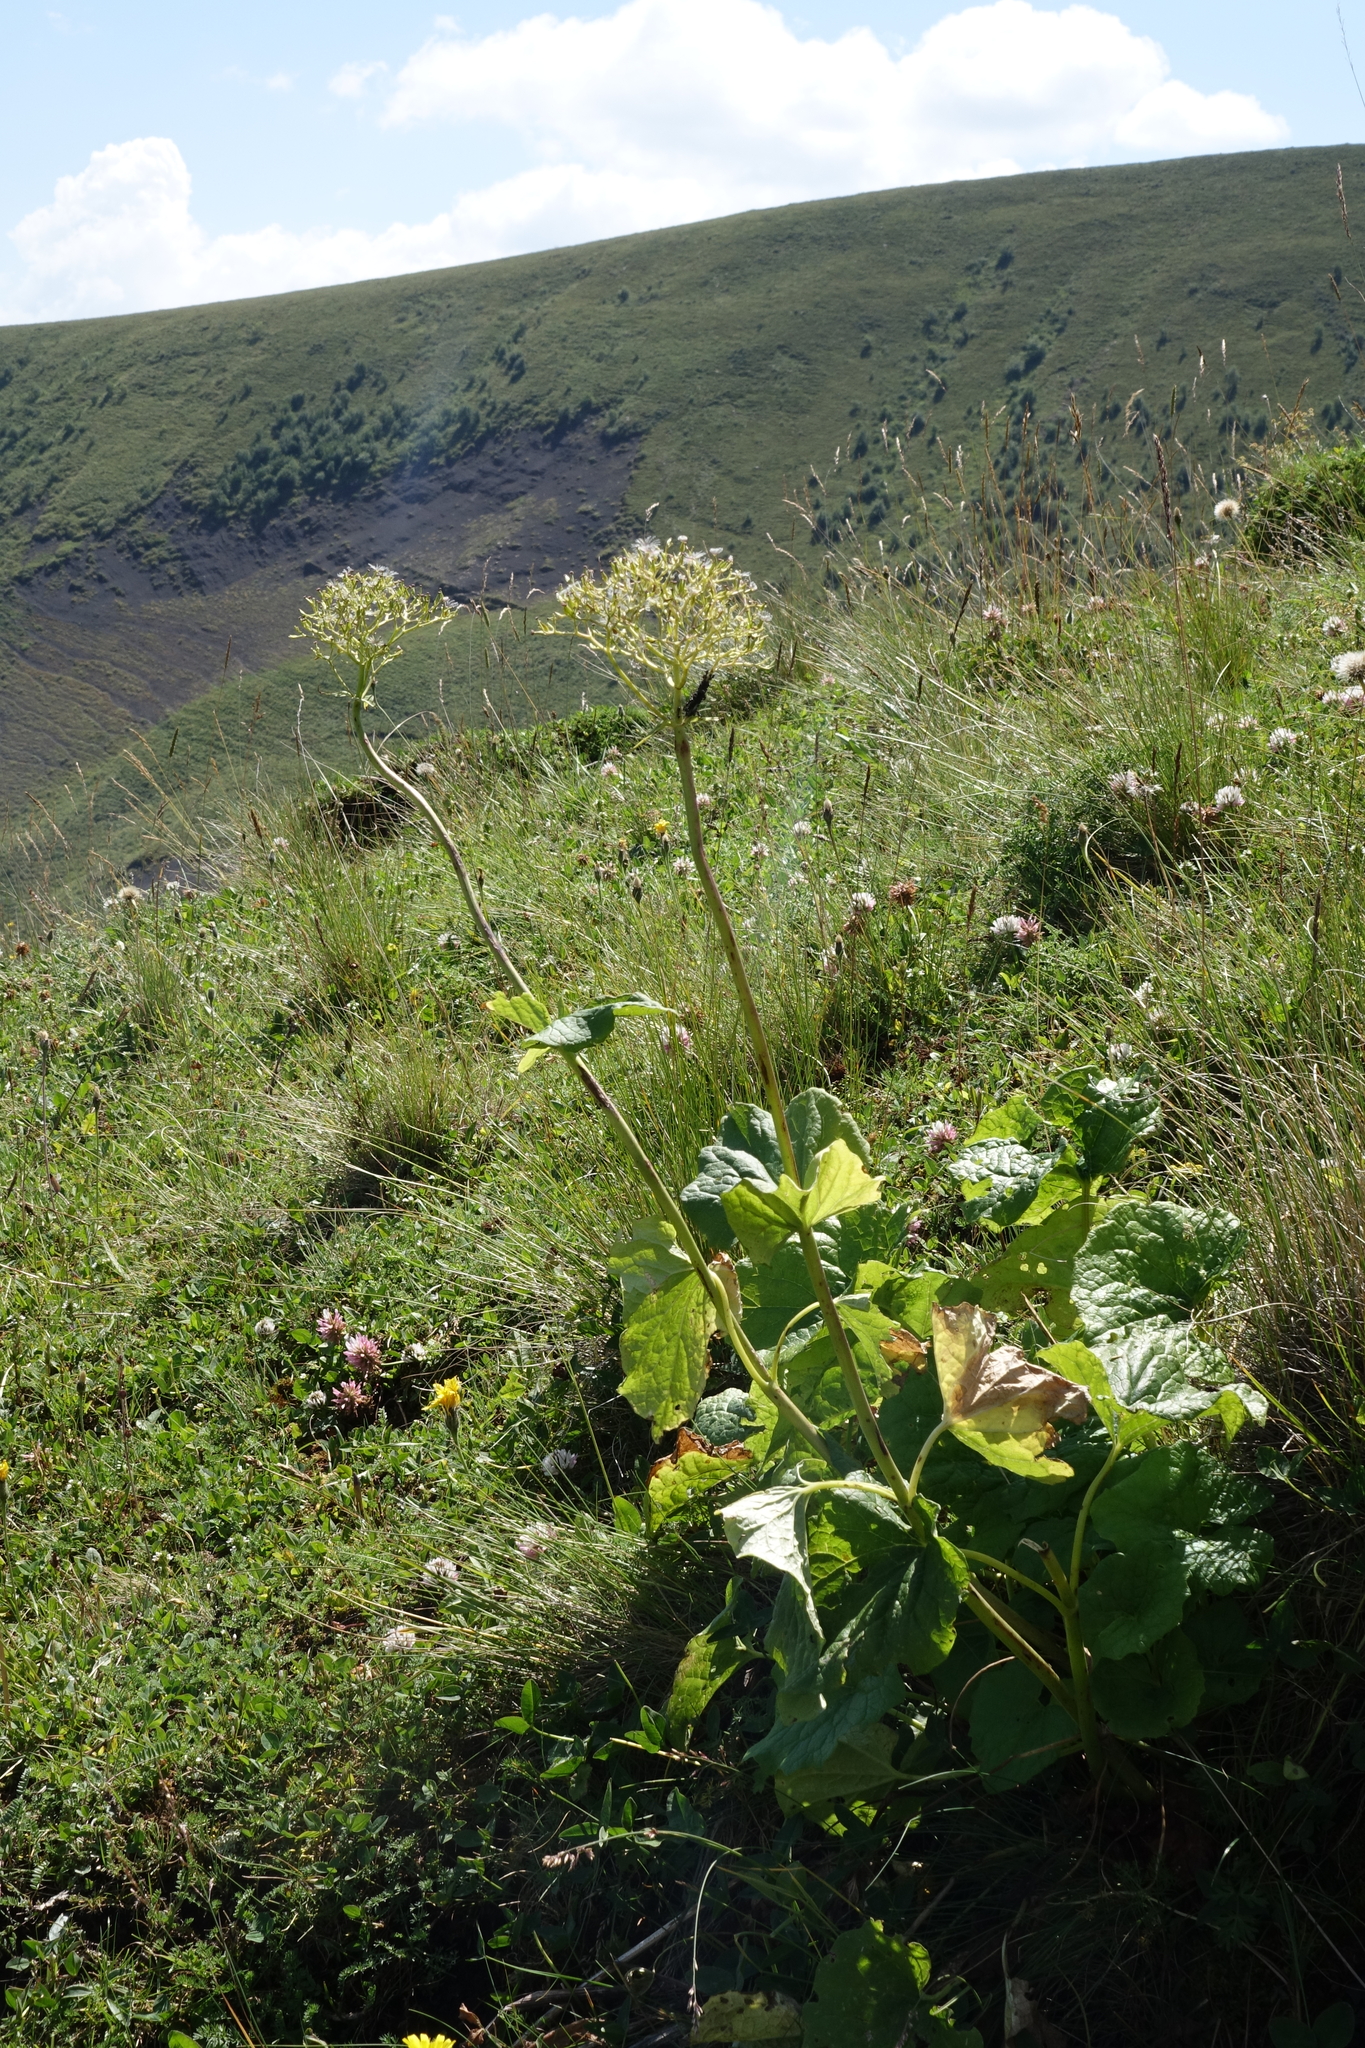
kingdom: Plantae
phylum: Tracheophyta
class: Magnoliopsida
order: Dipsacales
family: Caprifoliaceae
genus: Valeriana
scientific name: Valeriana alliariifolia
